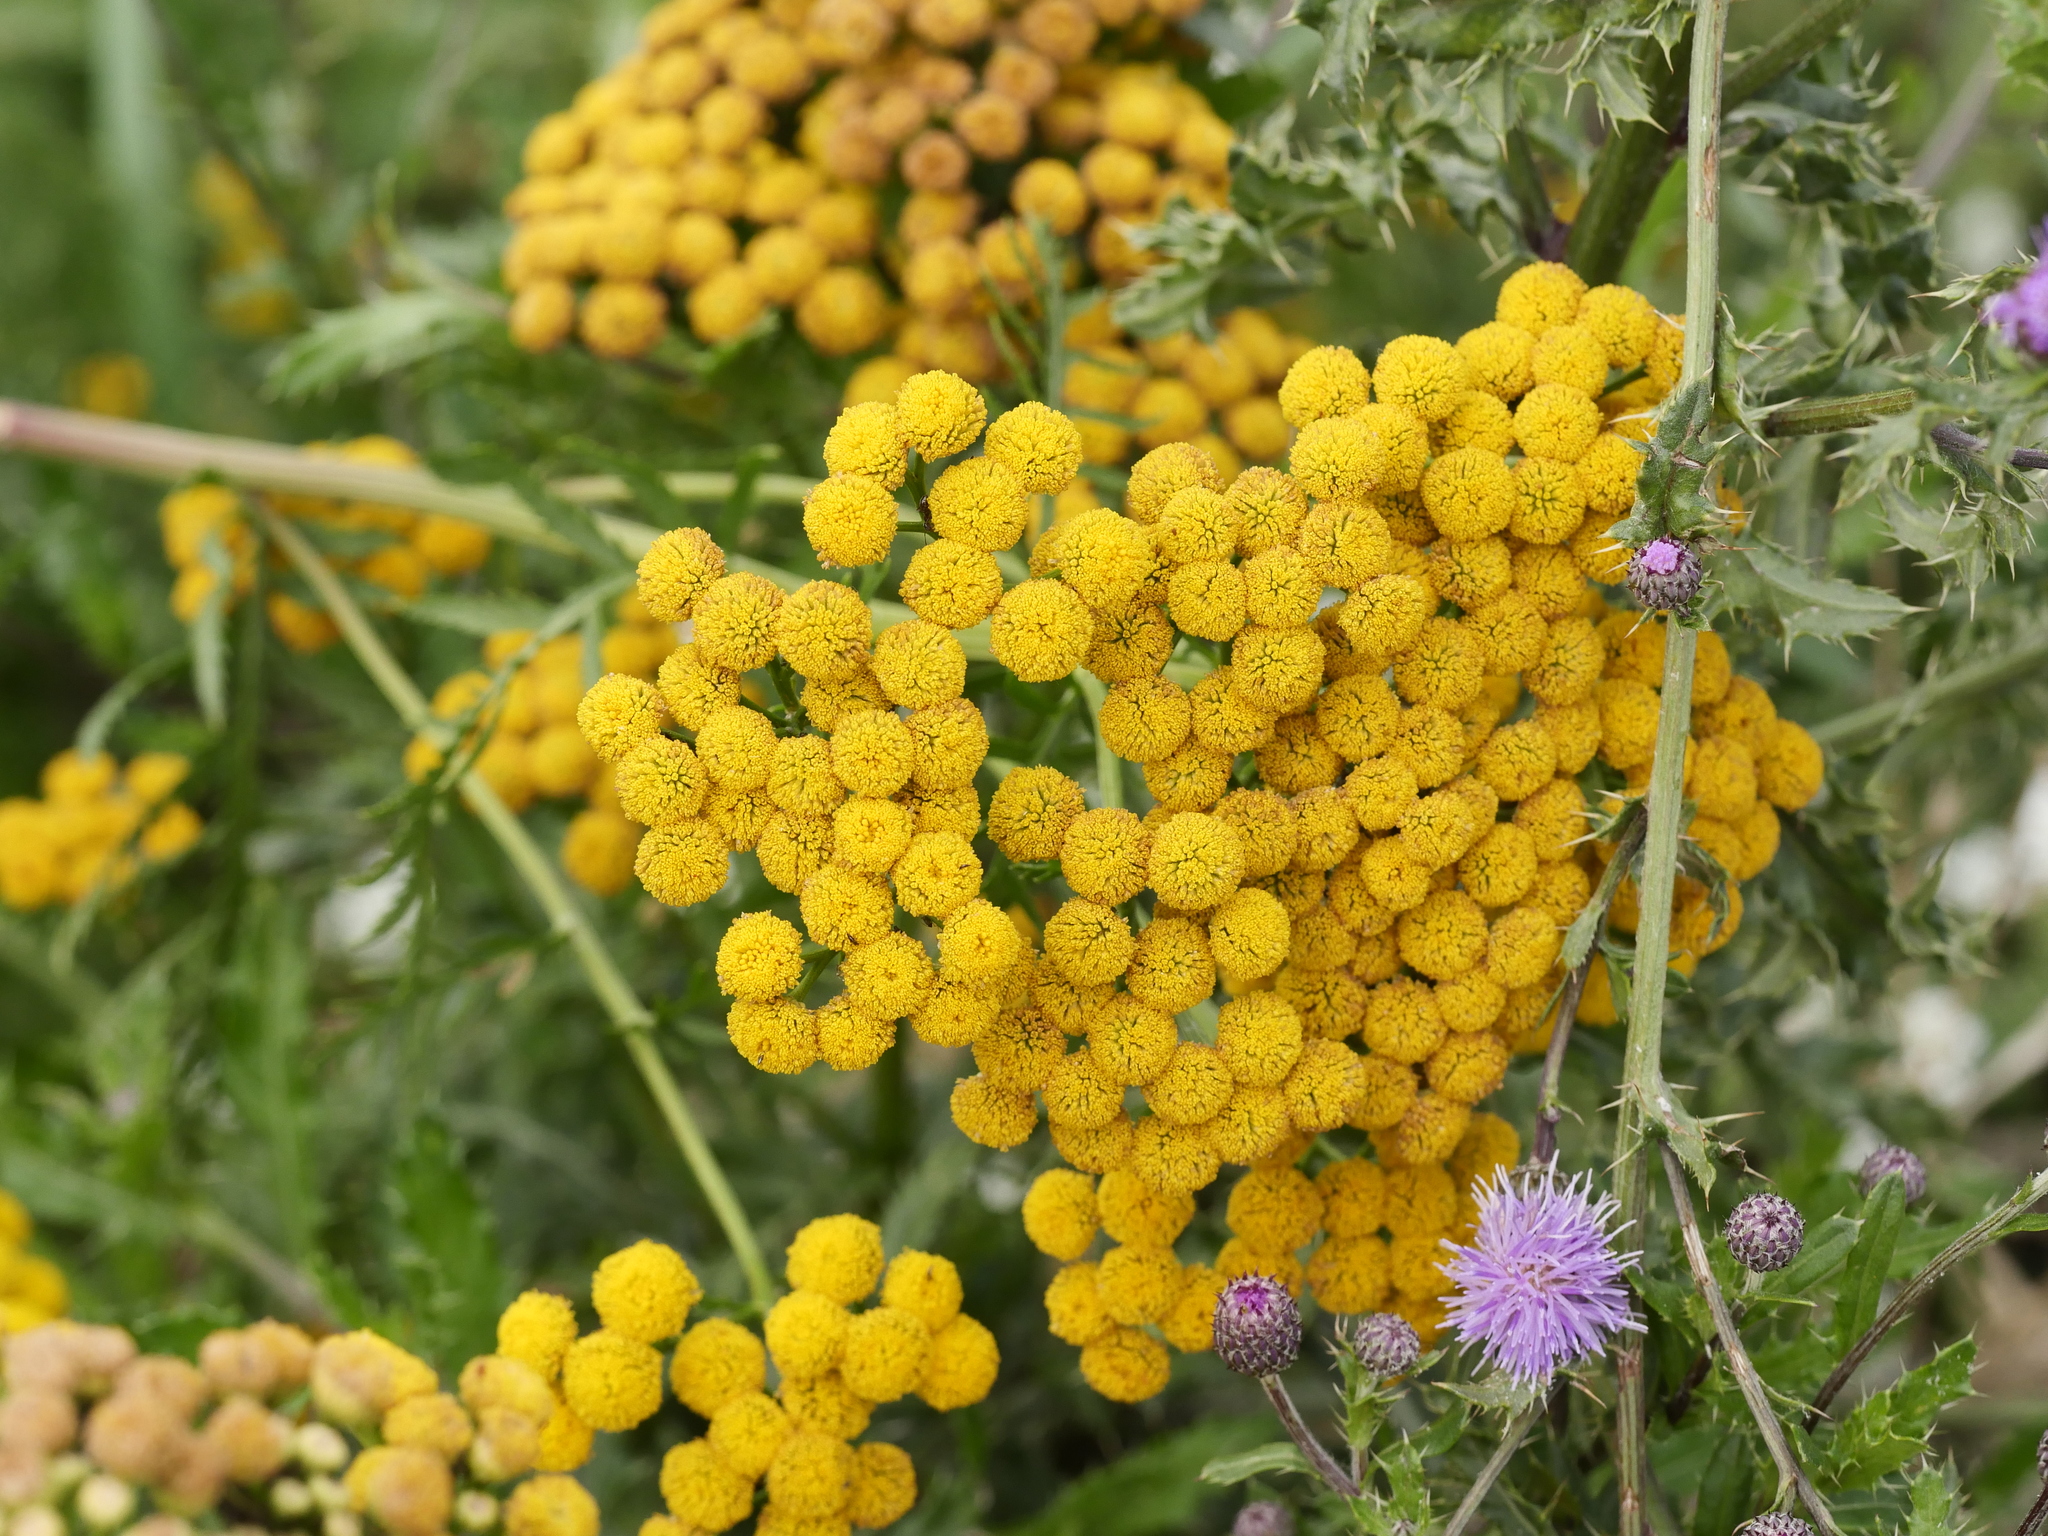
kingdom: Plantae
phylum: Tracheophyta
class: Magnoliopsida
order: Asterales
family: Asteraceae
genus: Tanacetum
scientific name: Tanacetum vulgare
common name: Common tansy
